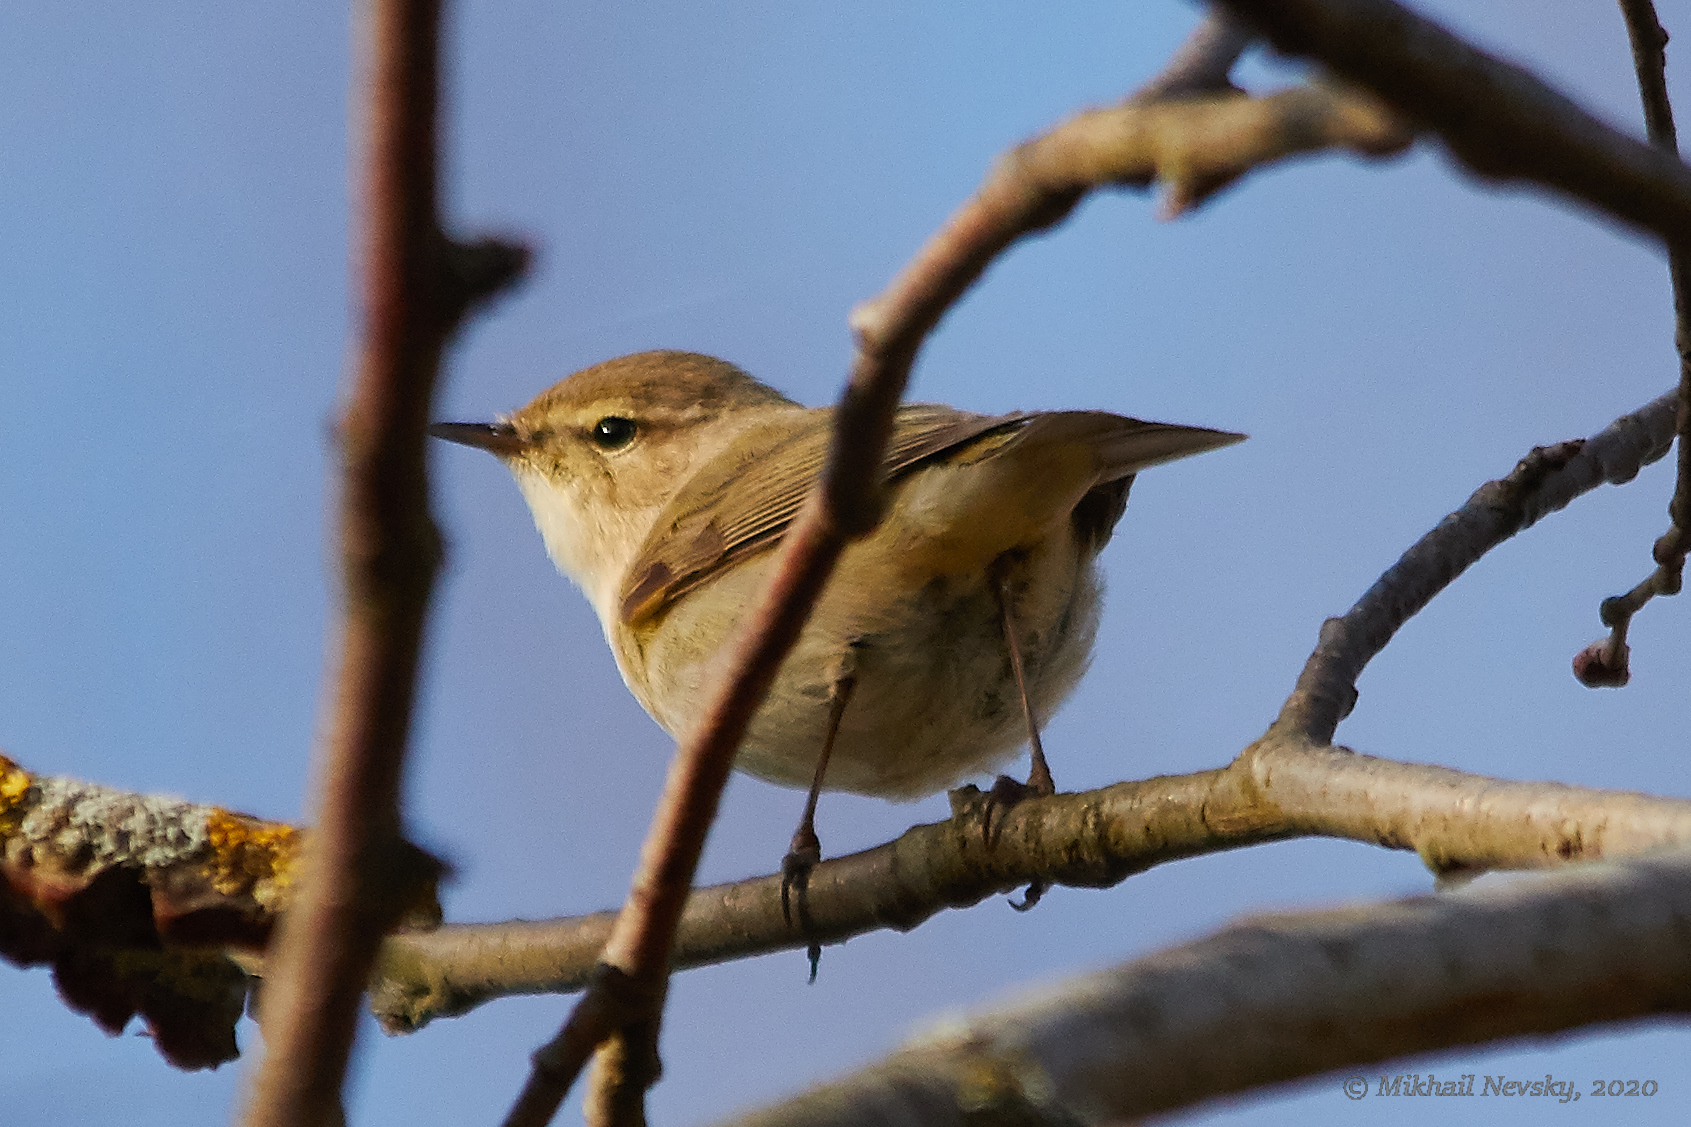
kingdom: Animalia
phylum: Chordata
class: Aves
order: Passeriformes
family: Phylloscopidae
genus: Phylloscopus
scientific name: Phylloscopus collybita
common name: Common chiffchaff
